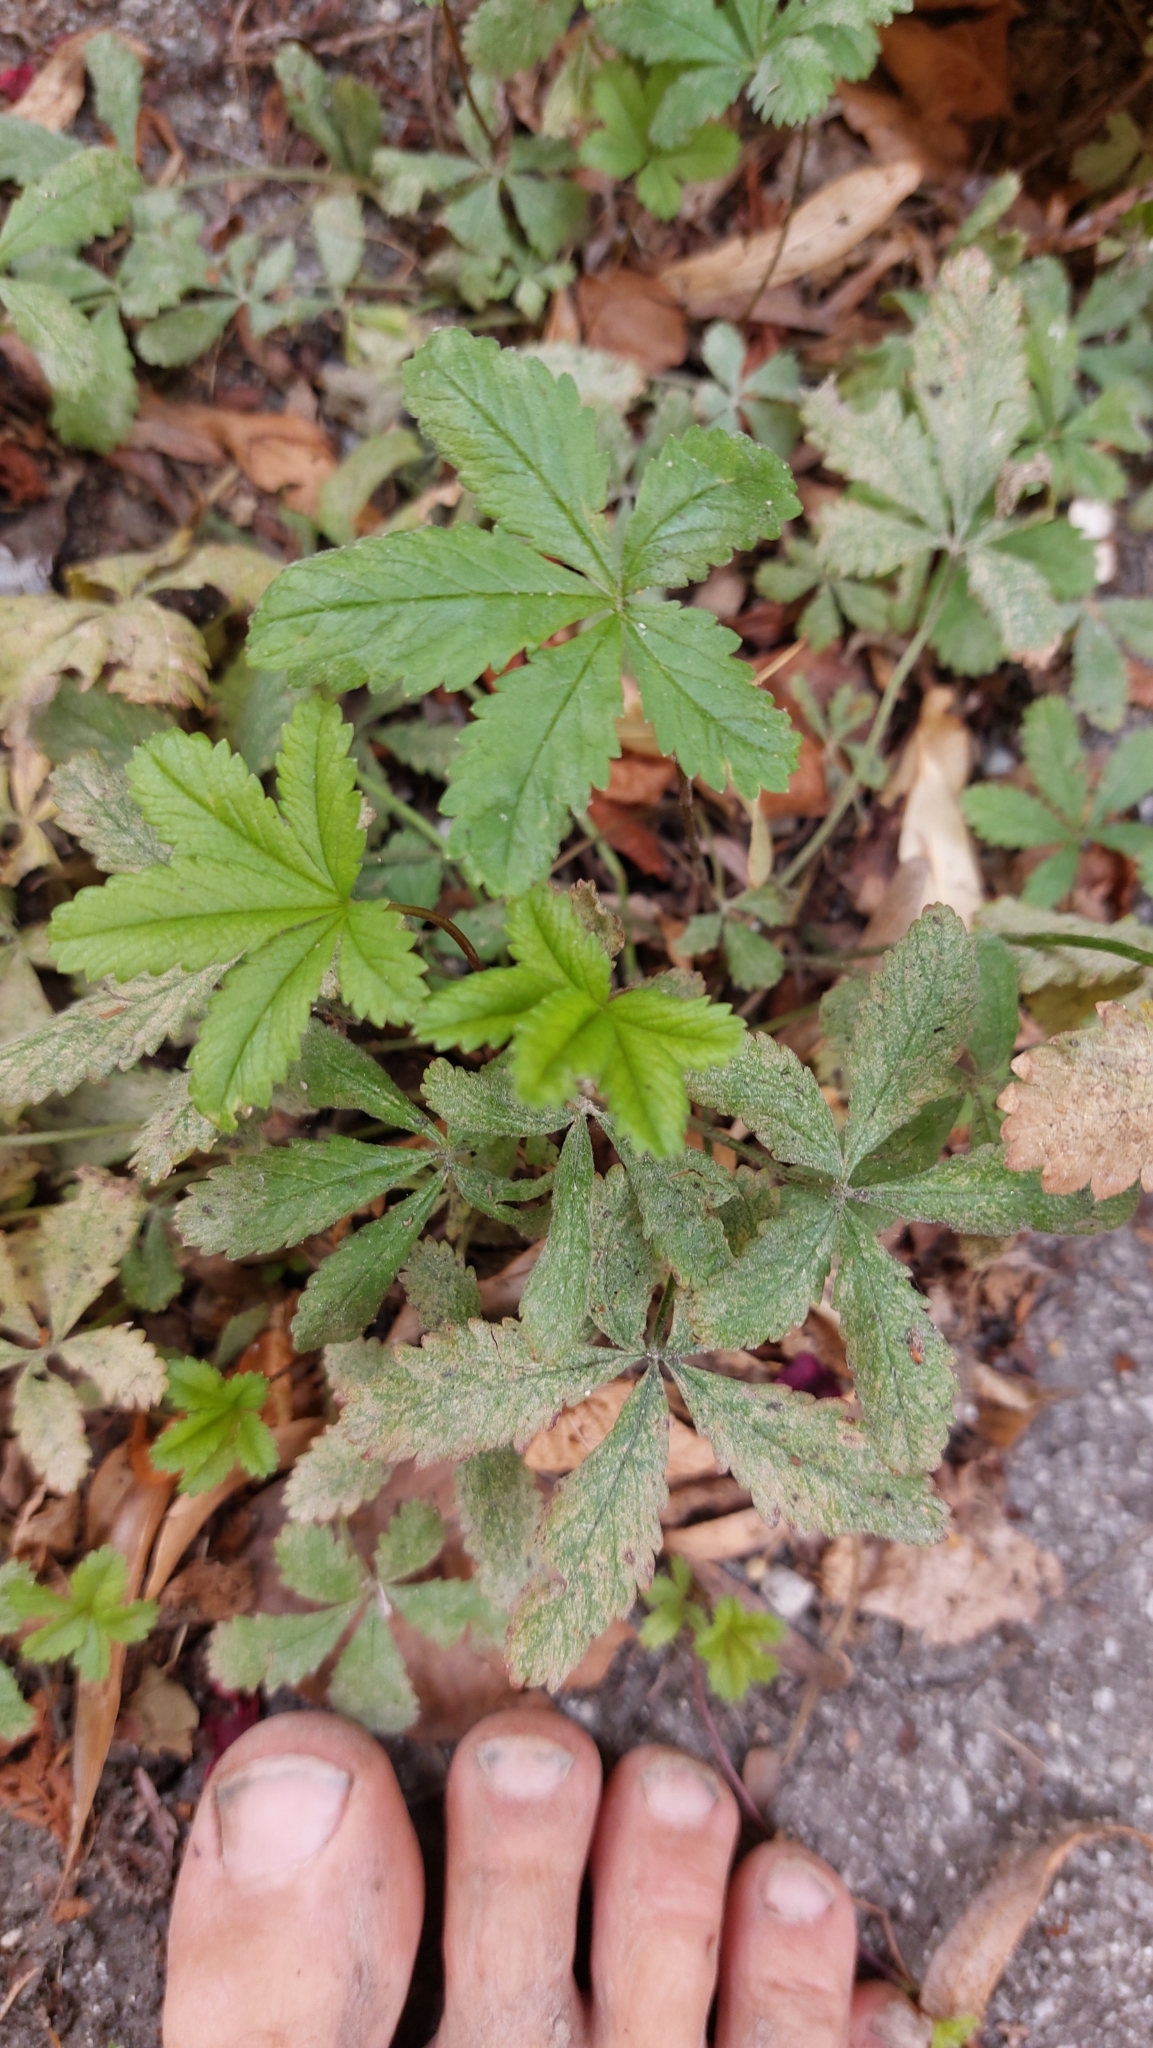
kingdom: Plantae
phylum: Tracheophyta
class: Magnoliopsida
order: Rosales
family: Rosaceae
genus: Potentilla
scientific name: Potentilla reptans
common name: Creeping cinquefoil
